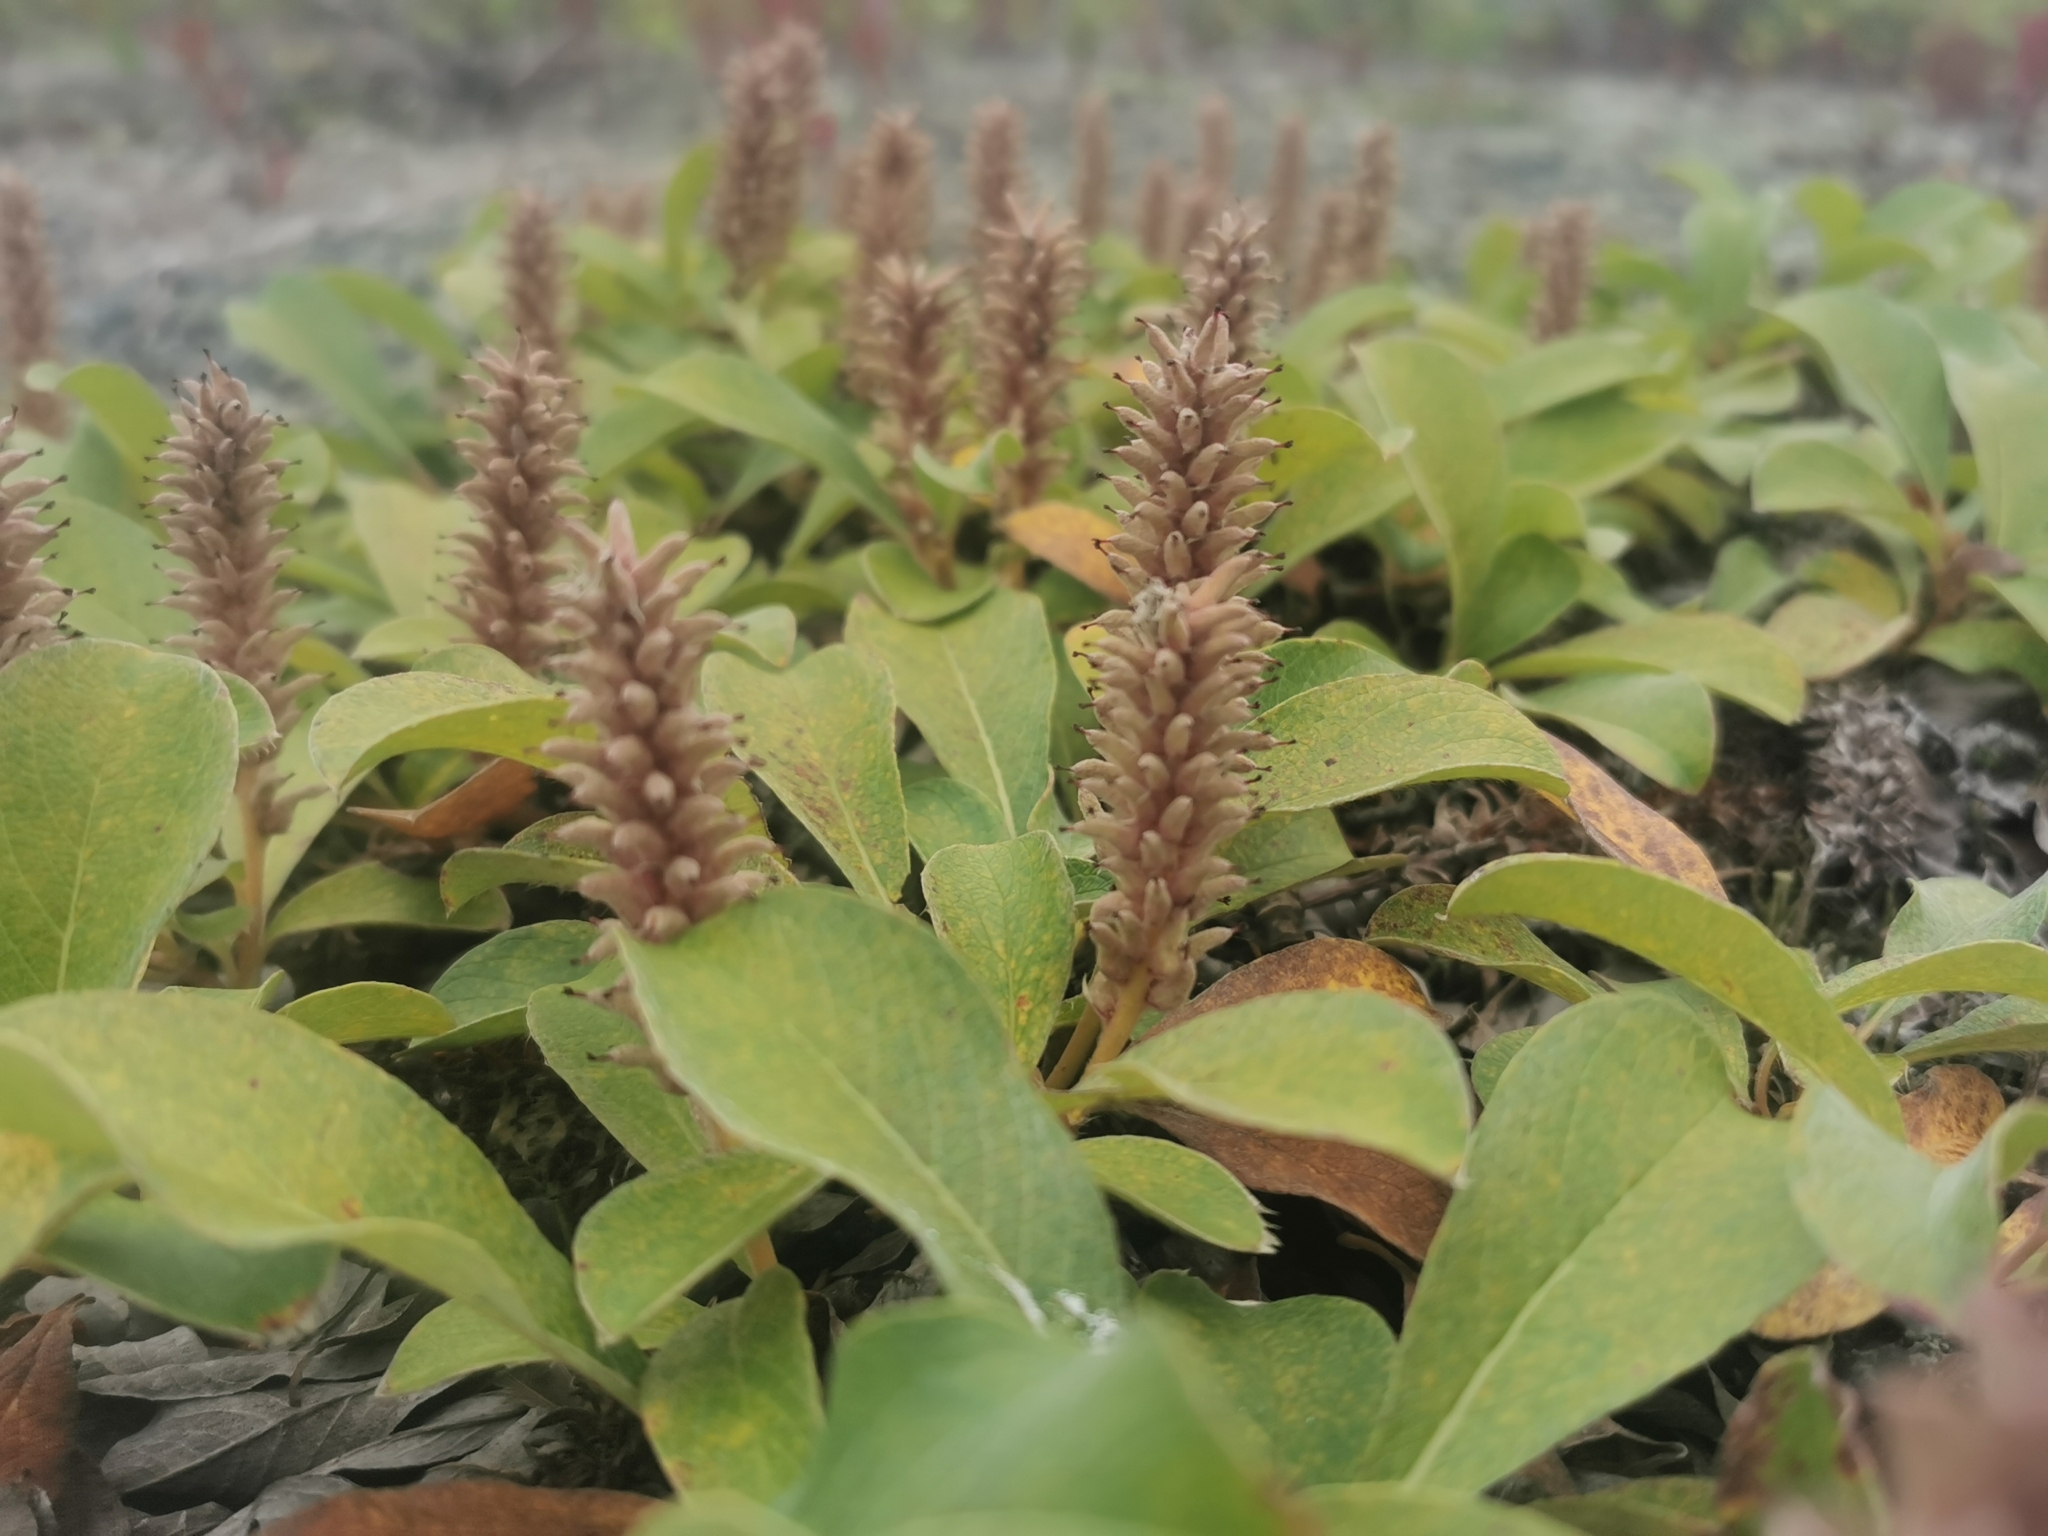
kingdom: Plantae
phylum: Tracheophyta
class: Magnoliopsida
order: Malpighiales
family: Salicaceae
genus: Salix
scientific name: Salix arctica
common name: Arctic willow
